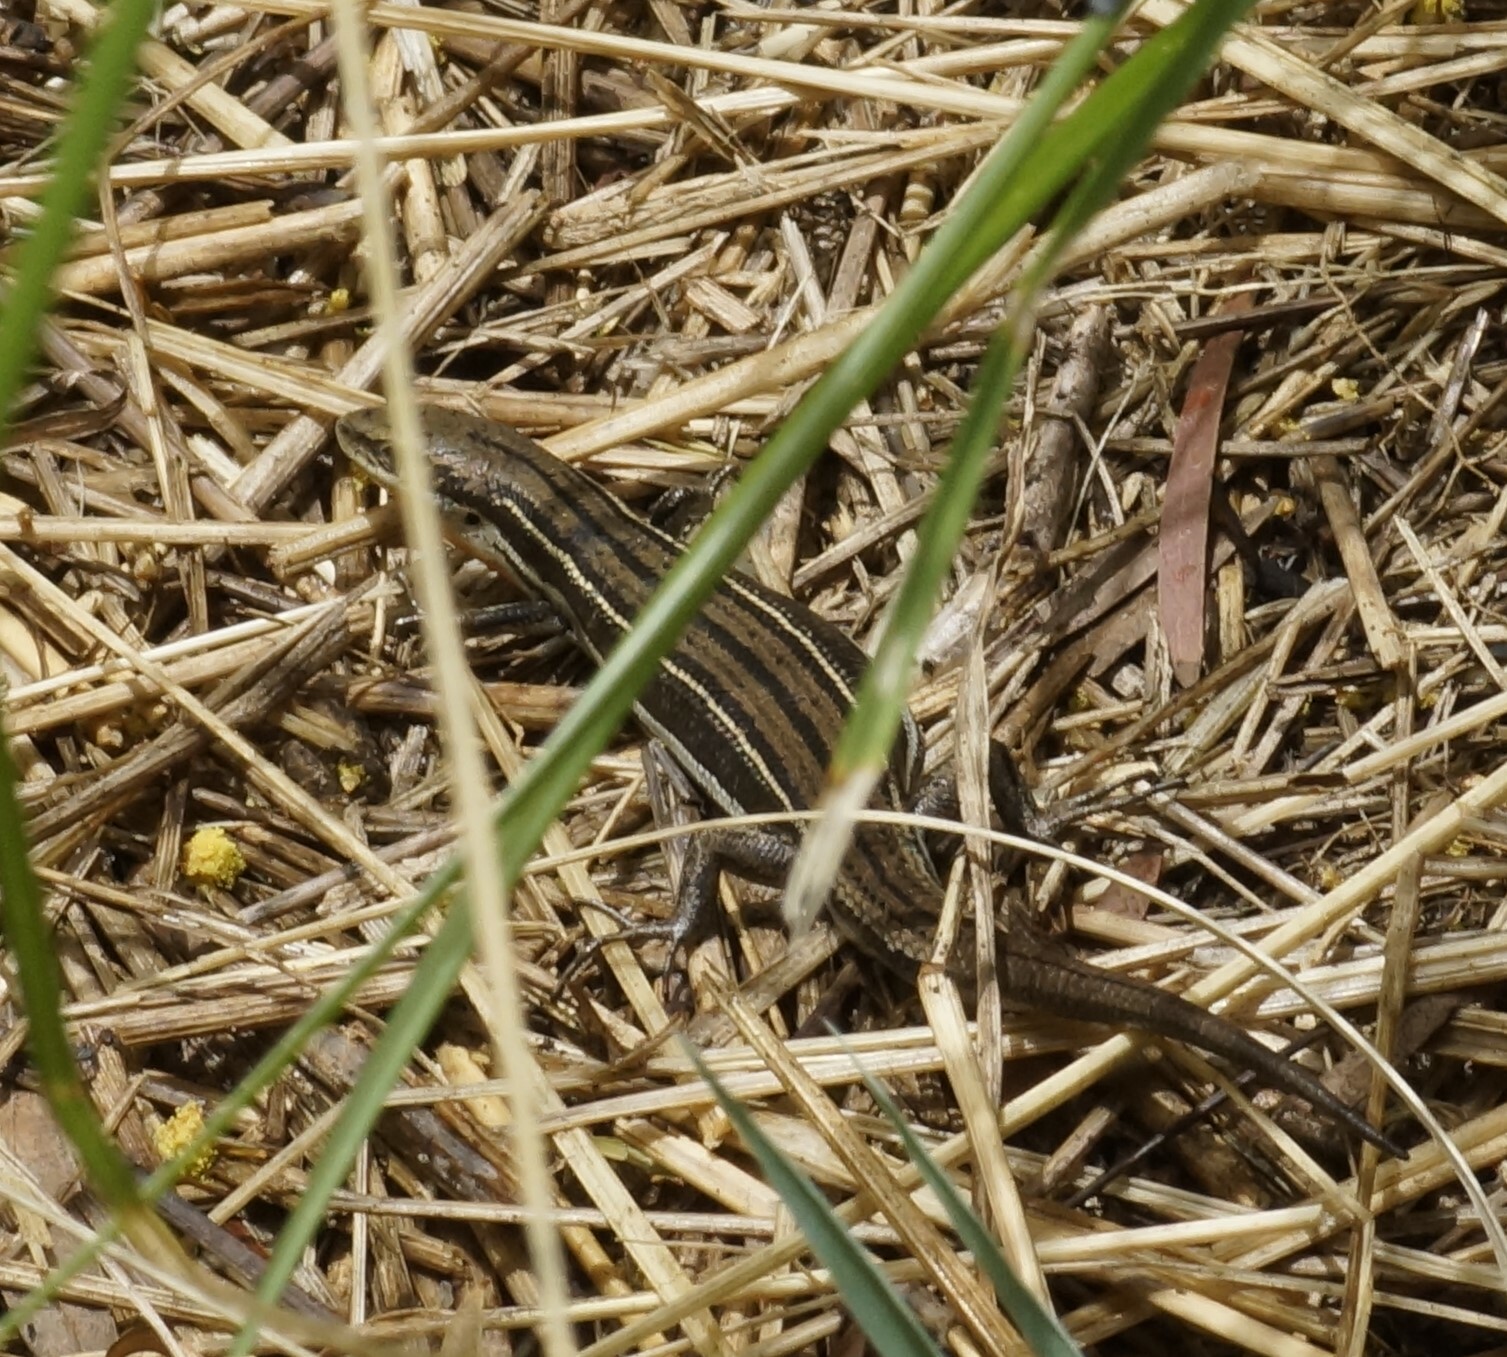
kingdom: Animalia
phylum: Chordata
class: Squamata
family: Scincidae
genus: Acritoscincus
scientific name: Acritoscincus duperreyi
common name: Bold-striped cool-skink
